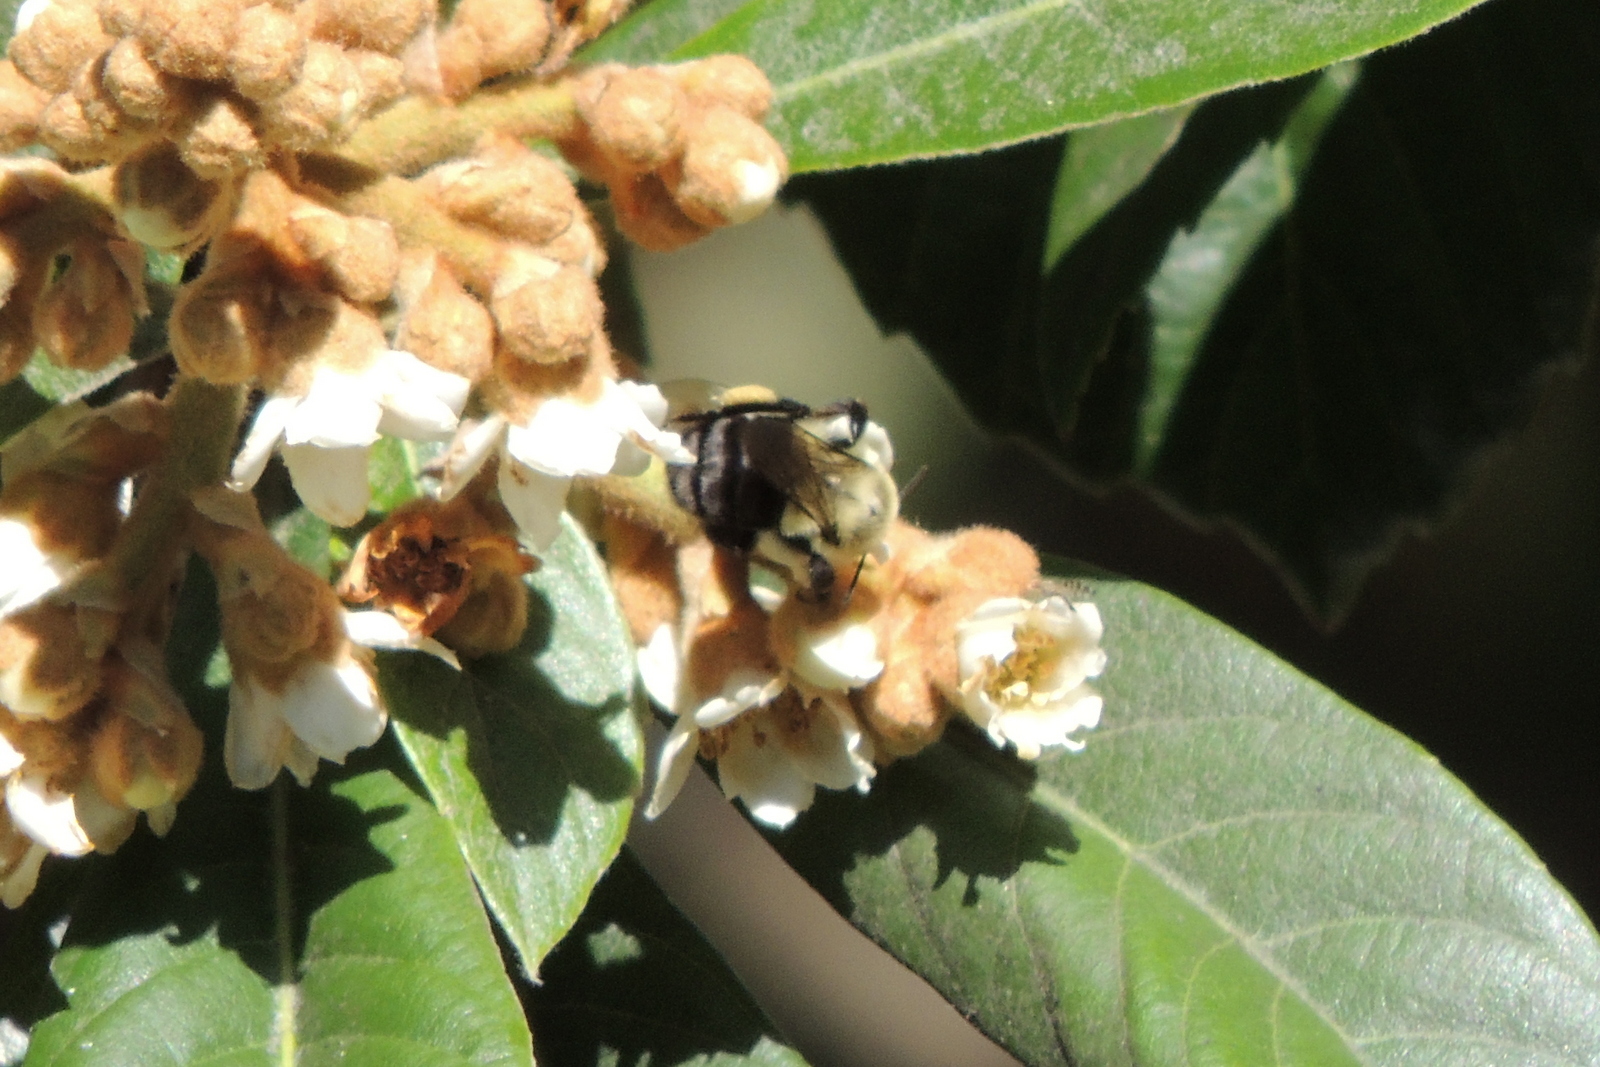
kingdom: Animalia
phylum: Arthropoda
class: Insecta
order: Hymenoptera
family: Apidae
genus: Bombus
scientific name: Bombus impatiens
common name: Common eastern bumble bee
